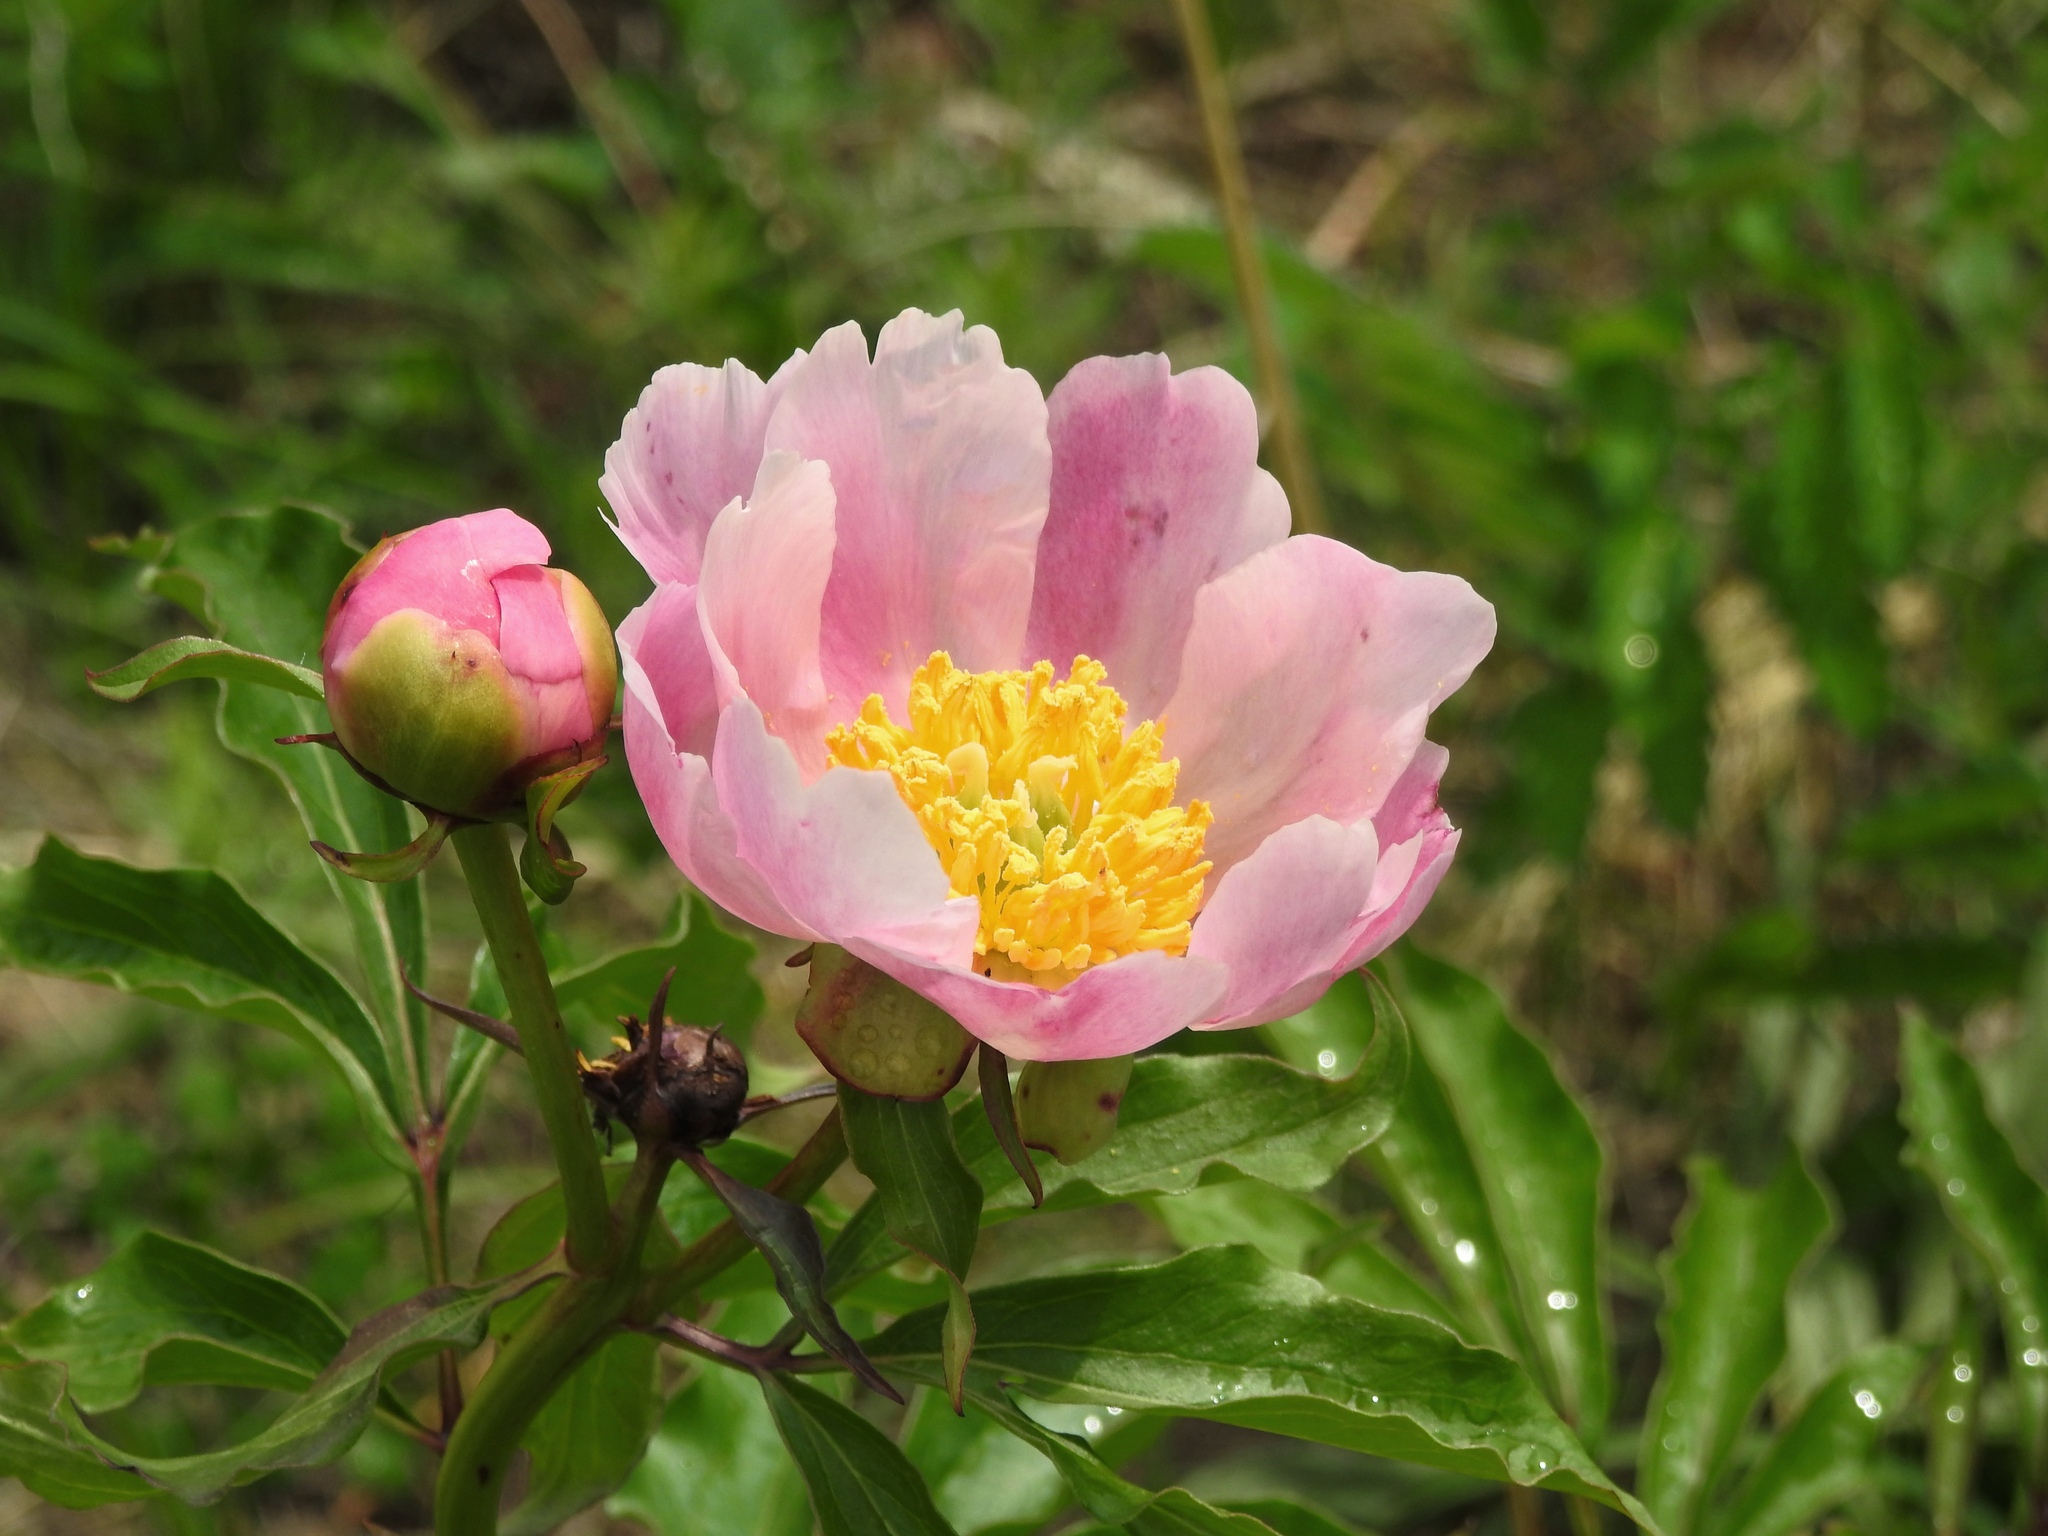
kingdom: Plantae
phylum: Tracheophyta
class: Magnoliopsida
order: Saxifragales
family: Paeoniaceae
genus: Paeonia
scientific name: Paeonia lactiflora
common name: Chinese peony
